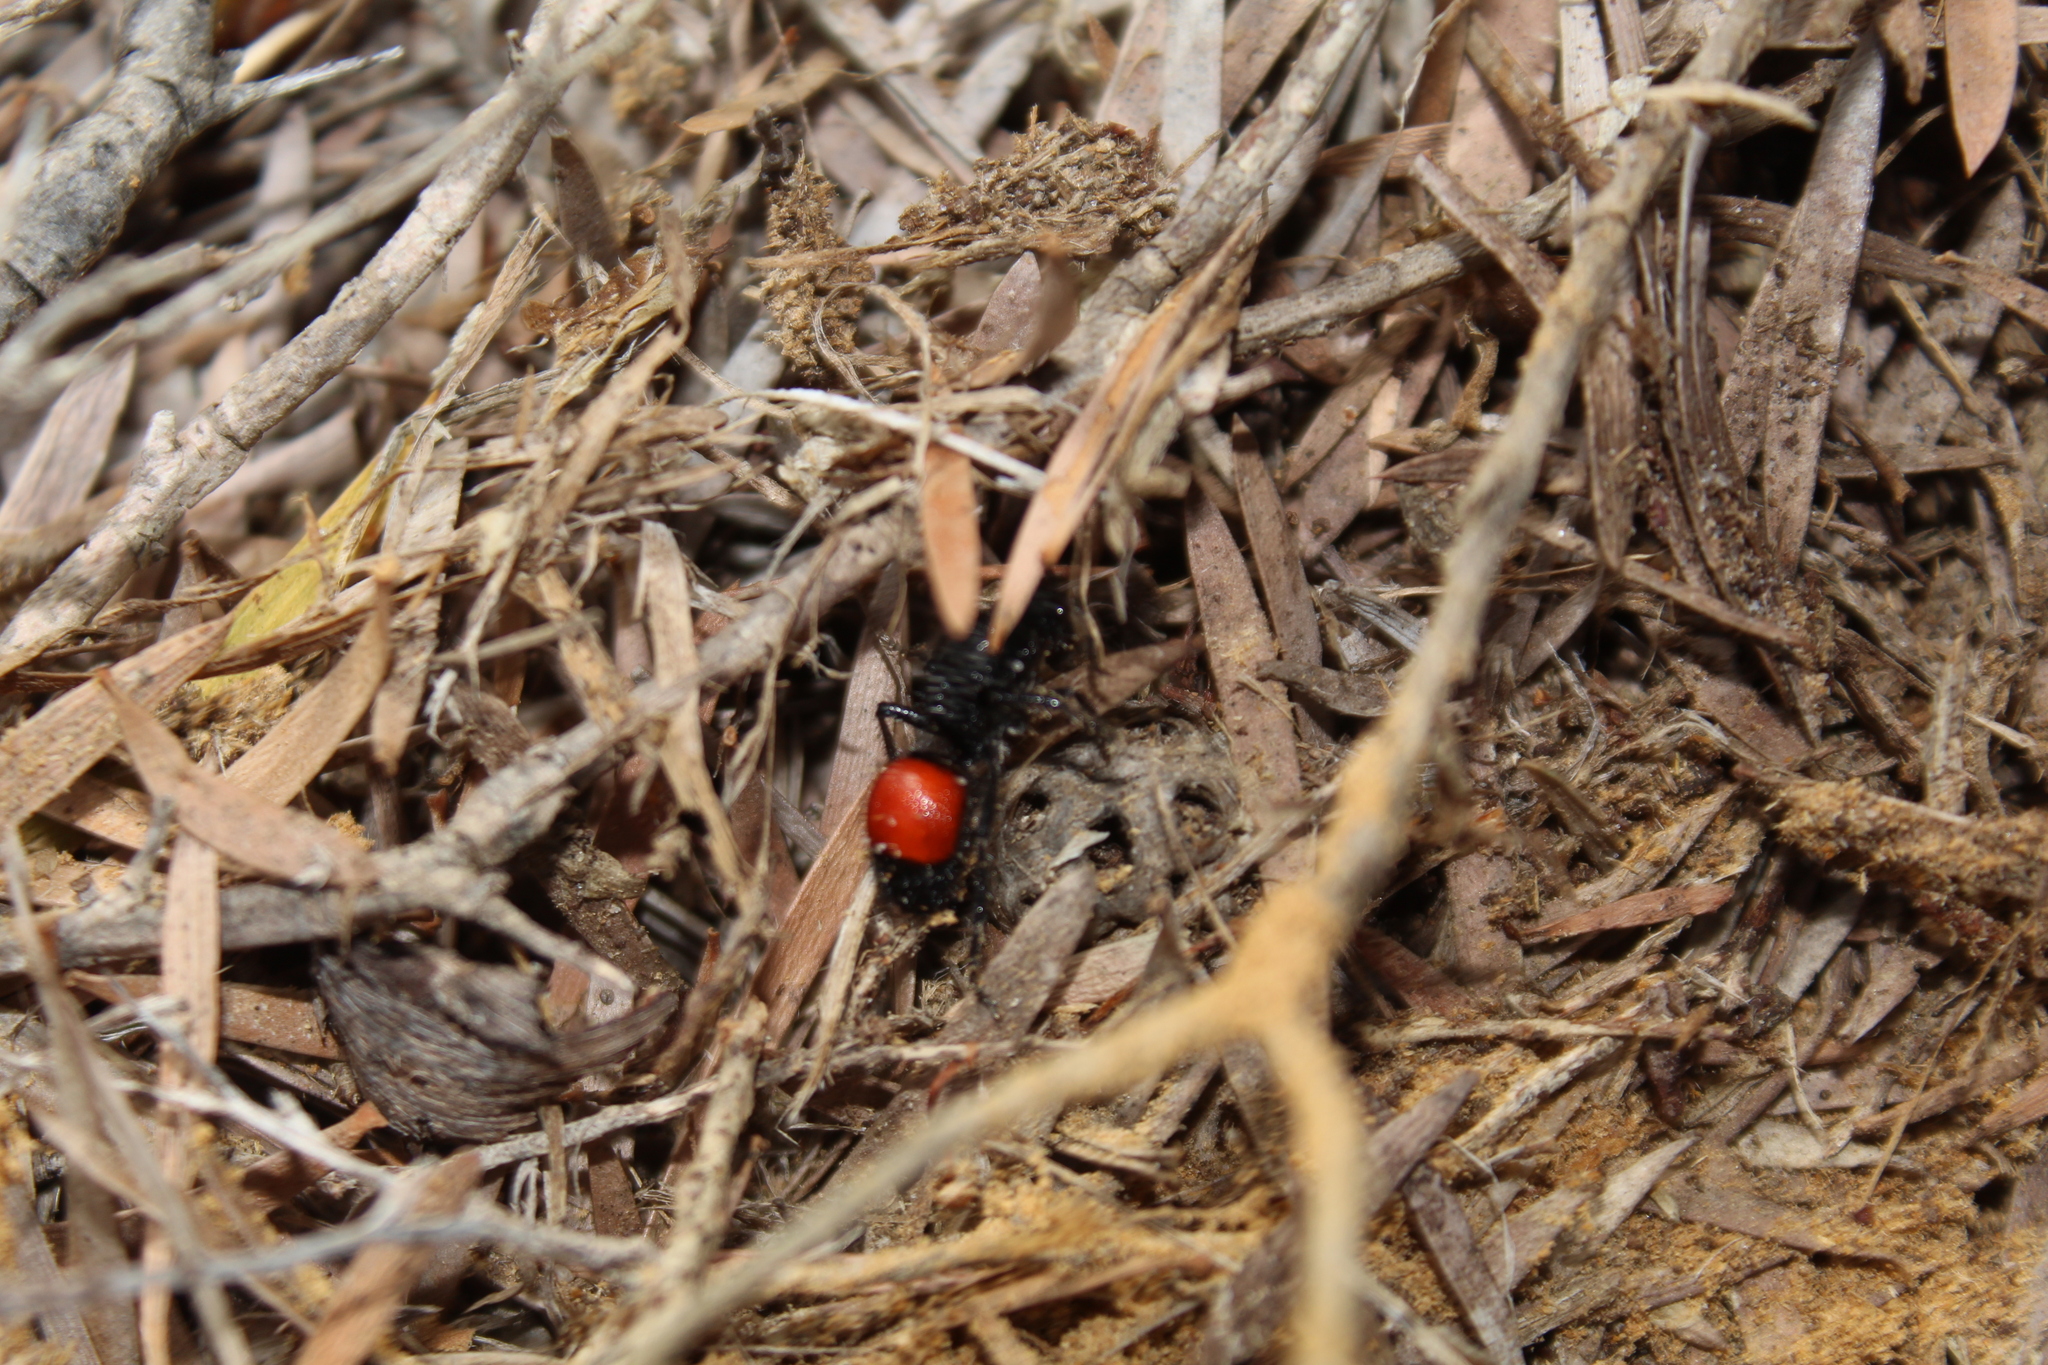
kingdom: Animalia
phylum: Arthropoda
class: Insecta
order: Hymenoptera
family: Mutillidae
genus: Ephutomorpha
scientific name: Ephutomorpha
